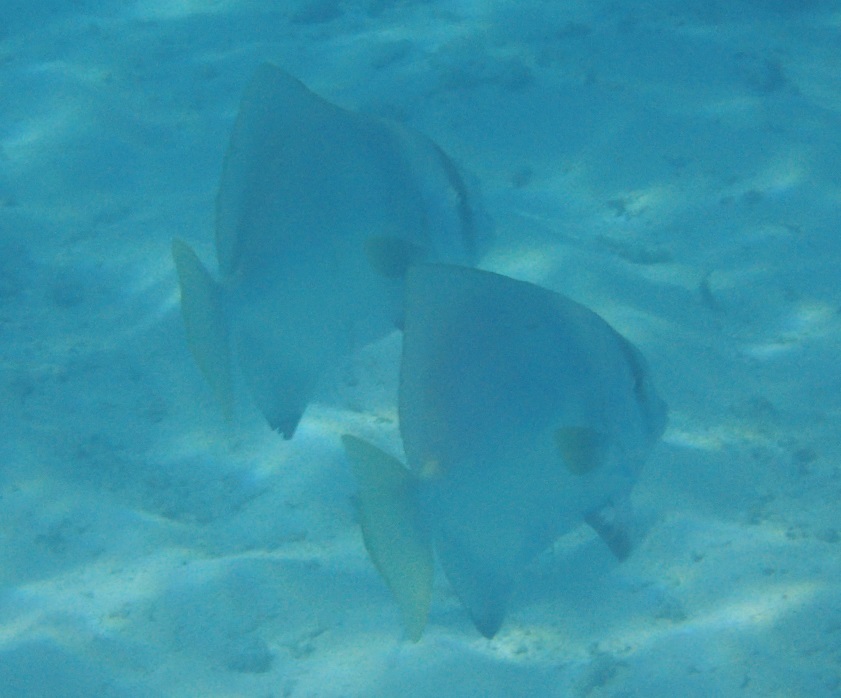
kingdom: Animalia
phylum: Chordata
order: Perciformes
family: Ephippidae
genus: Platax
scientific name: Platax batavianus
